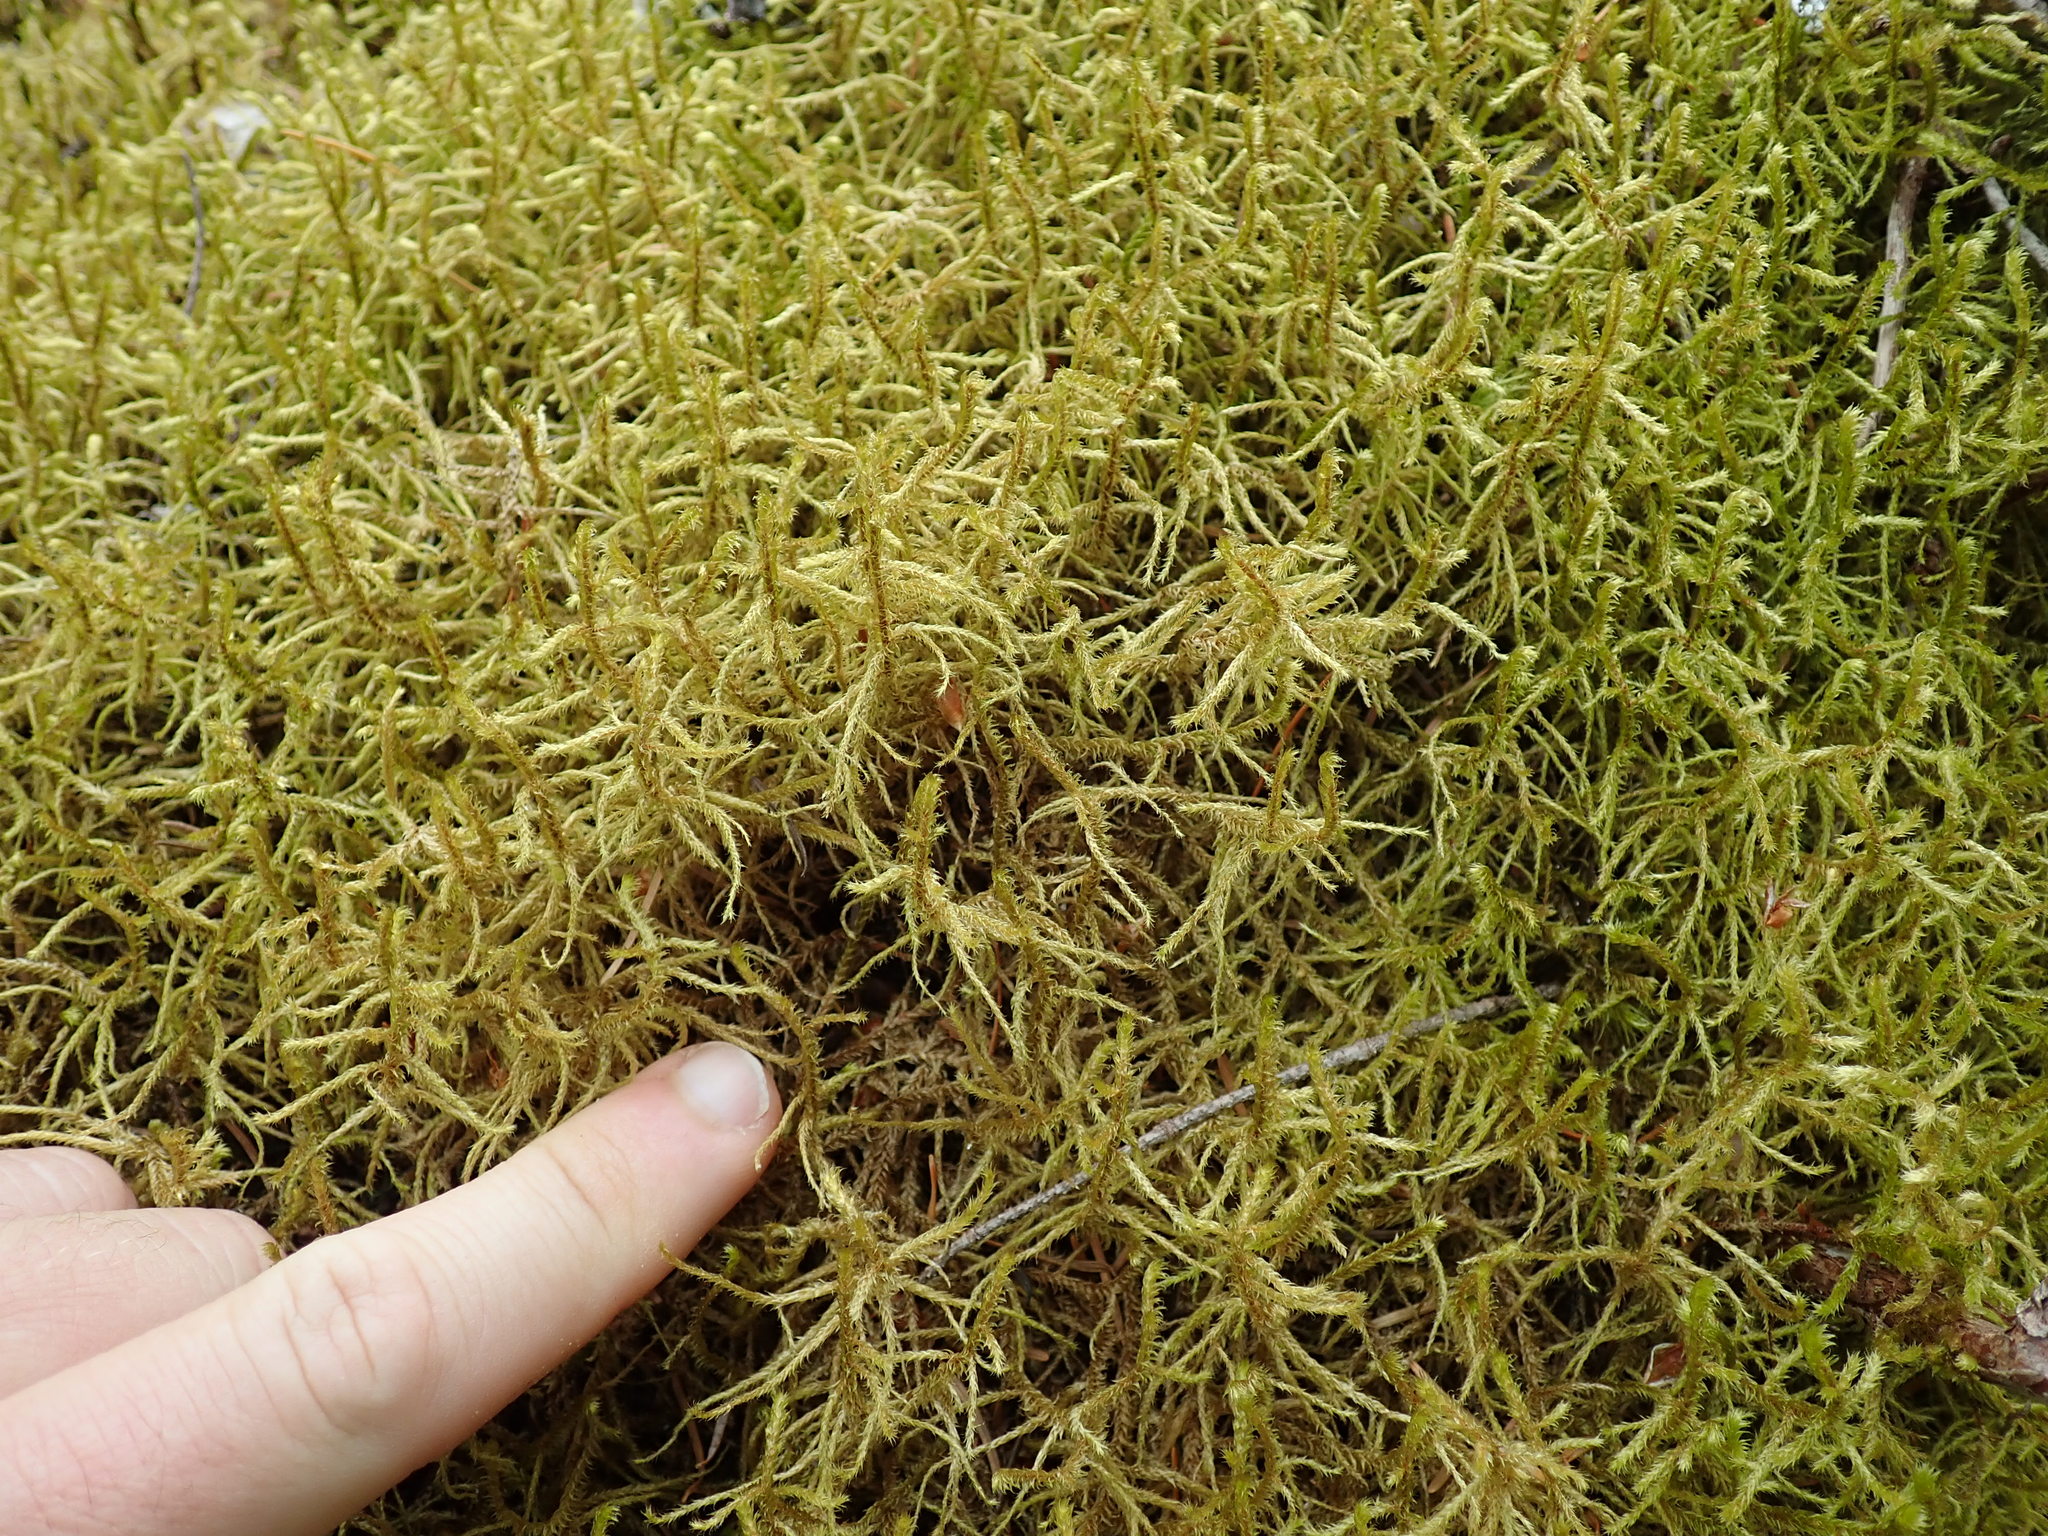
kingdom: Plantae
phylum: Bryophyta
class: Bryopsida
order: Hypnales
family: Antitrichiaceae
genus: Antitrichia
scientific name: Antitrichia curtipendula
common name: Pendulous wing-moss
